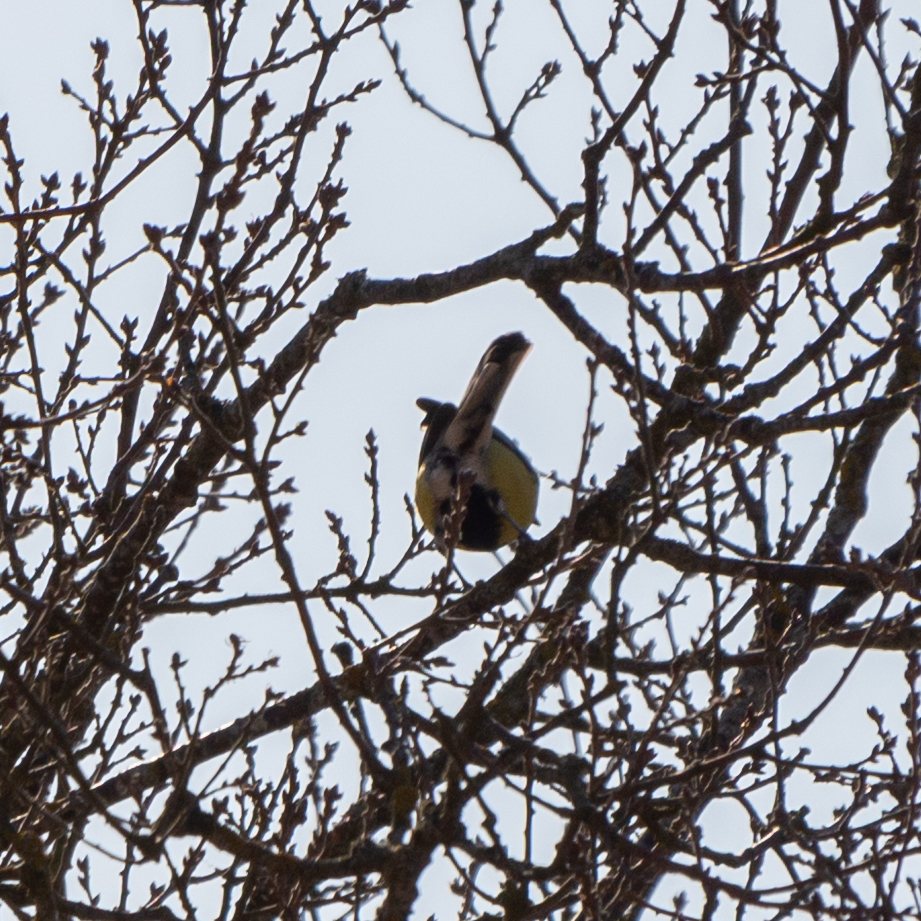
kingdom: Animalia
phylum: Chordata
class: Aves
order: Passeriformes
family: Paridae
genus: Parus
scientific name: Parus major
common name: Great tit
